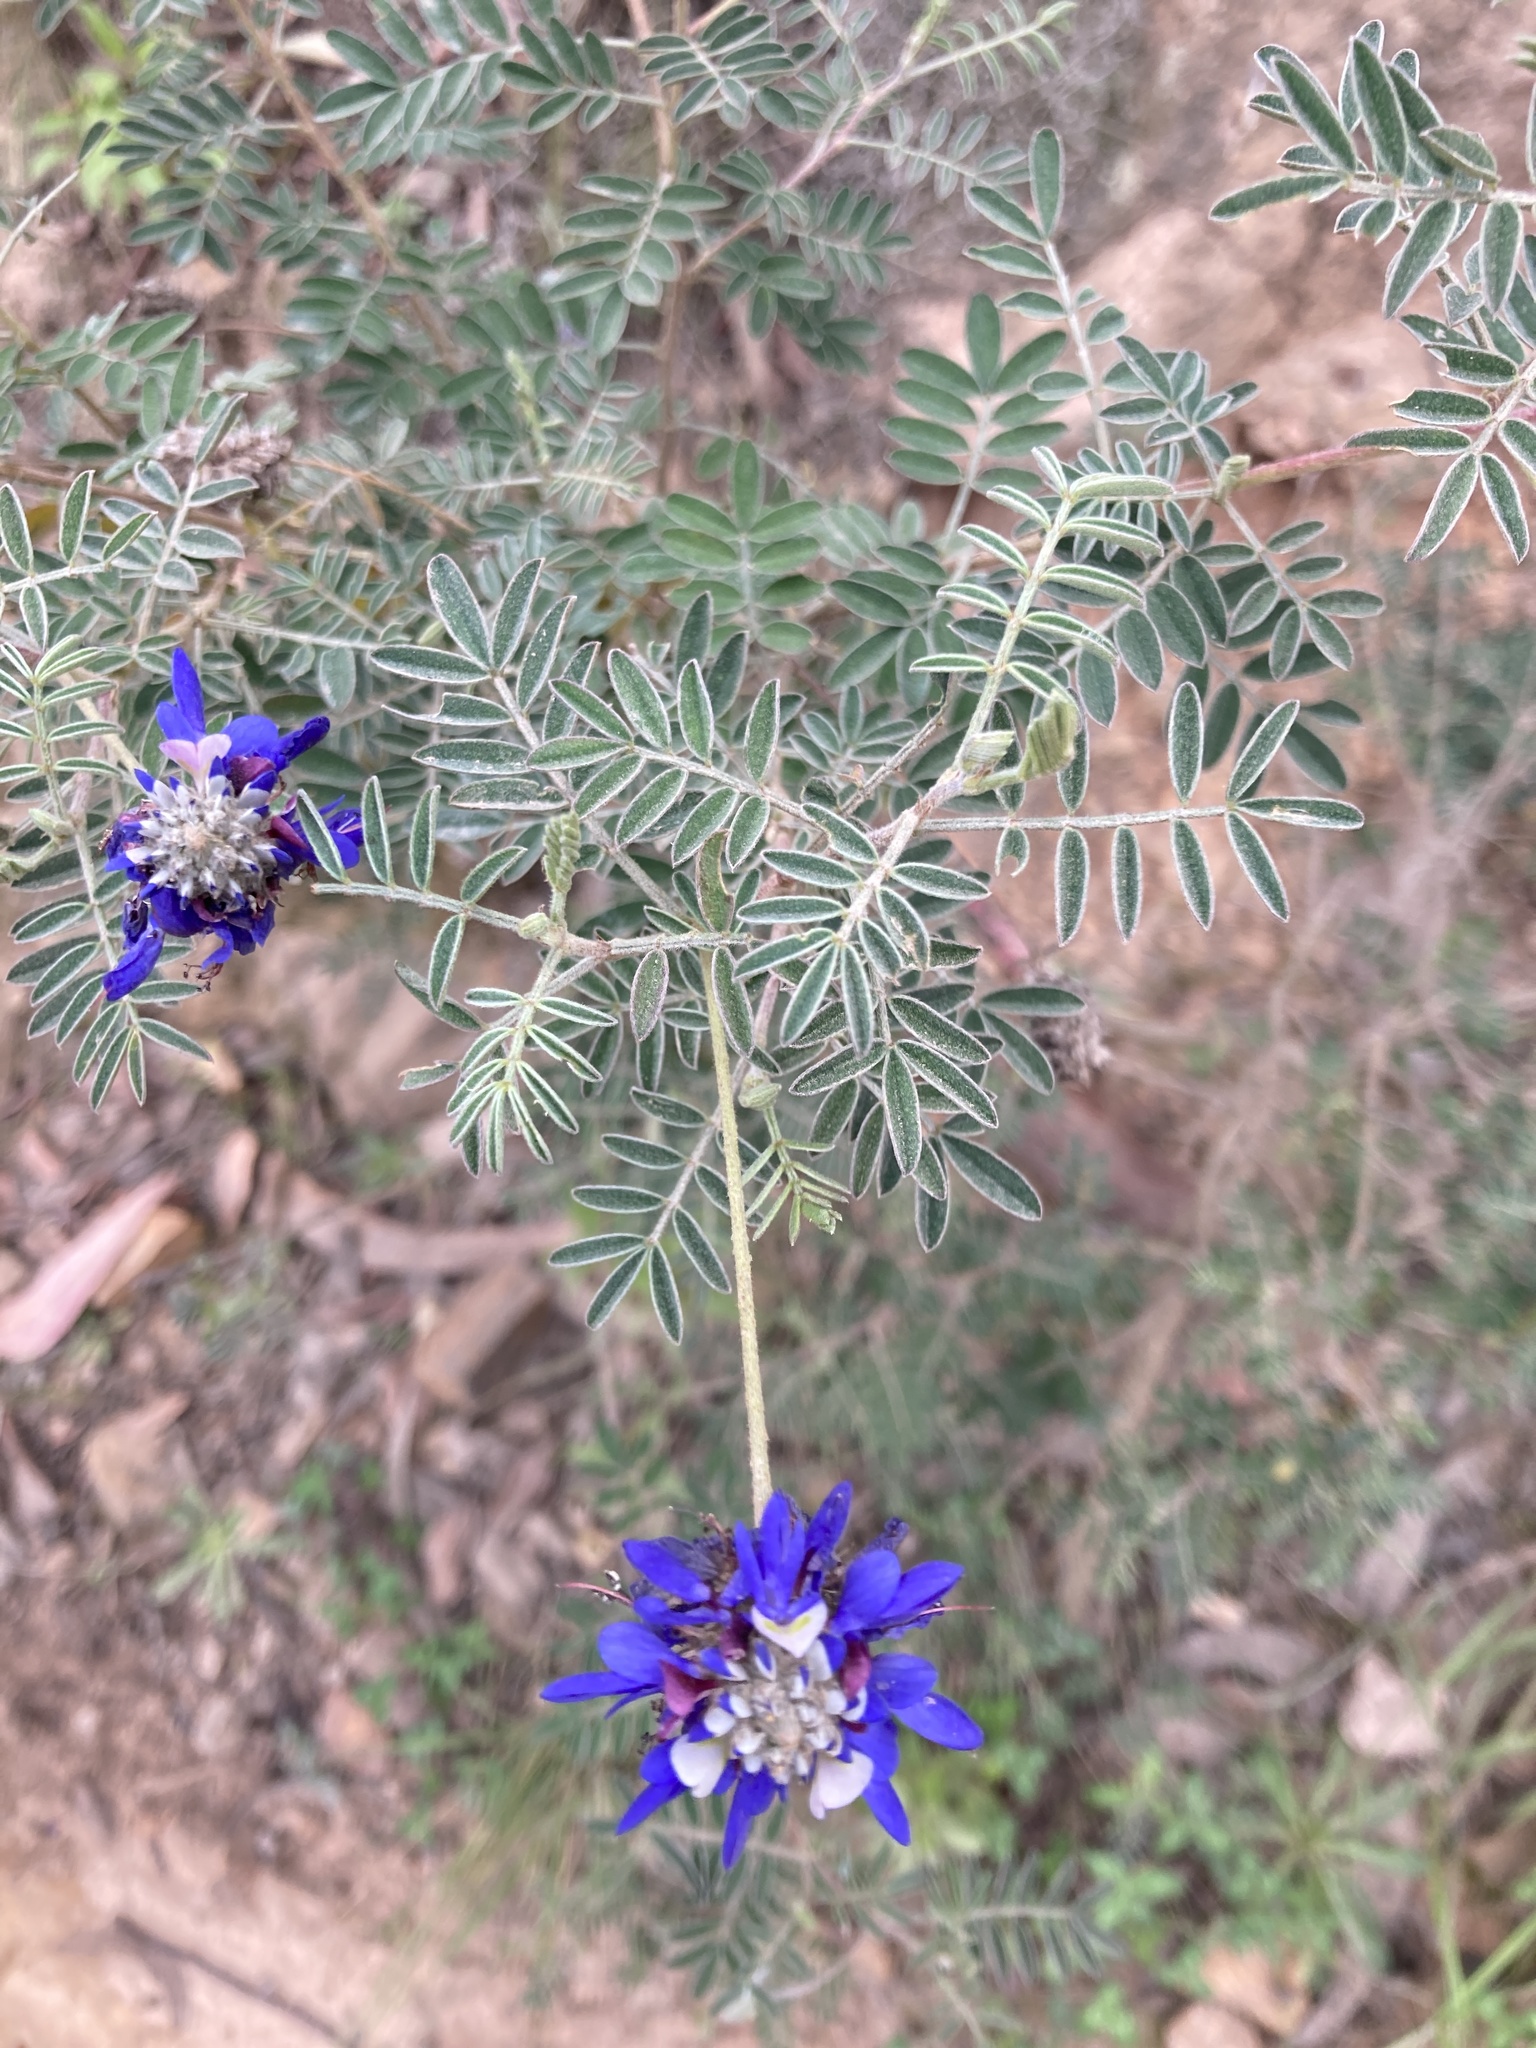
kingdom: Plantae
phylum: Tracheophyta
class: Magnoliopsida
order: Fabales
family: Fabaceae
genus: Dalea
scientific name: Dalea coerulea
